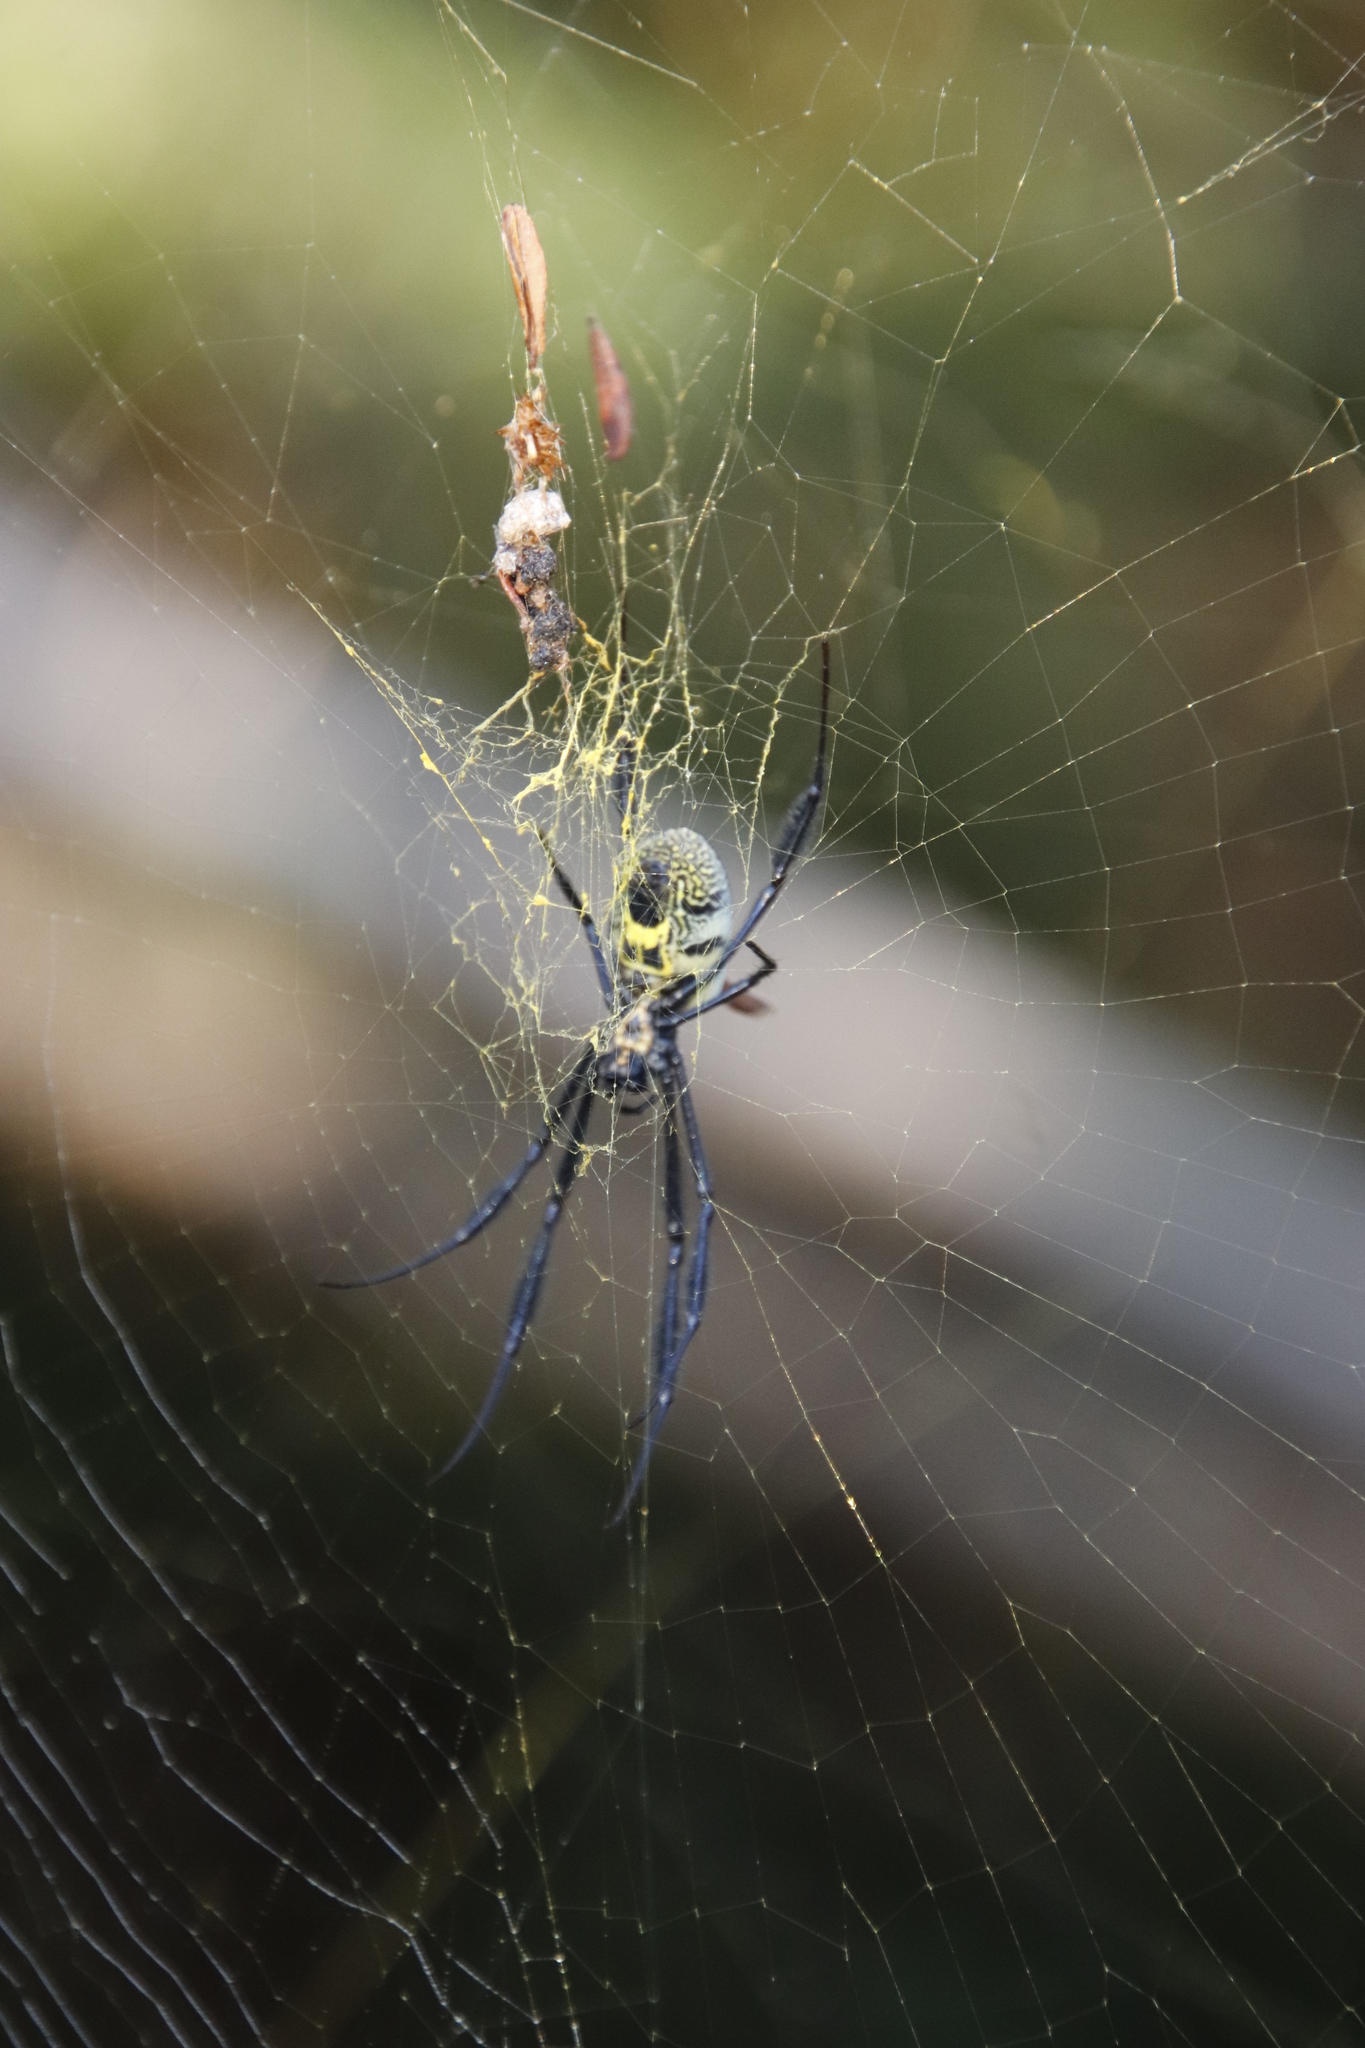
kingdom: Animalia
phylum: Arthropoda
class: Arachnida
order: Araneae
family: Araneidae
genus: Trichonephila
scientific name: Trichonephila fenestrata
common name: Hairy golden orb weaver
